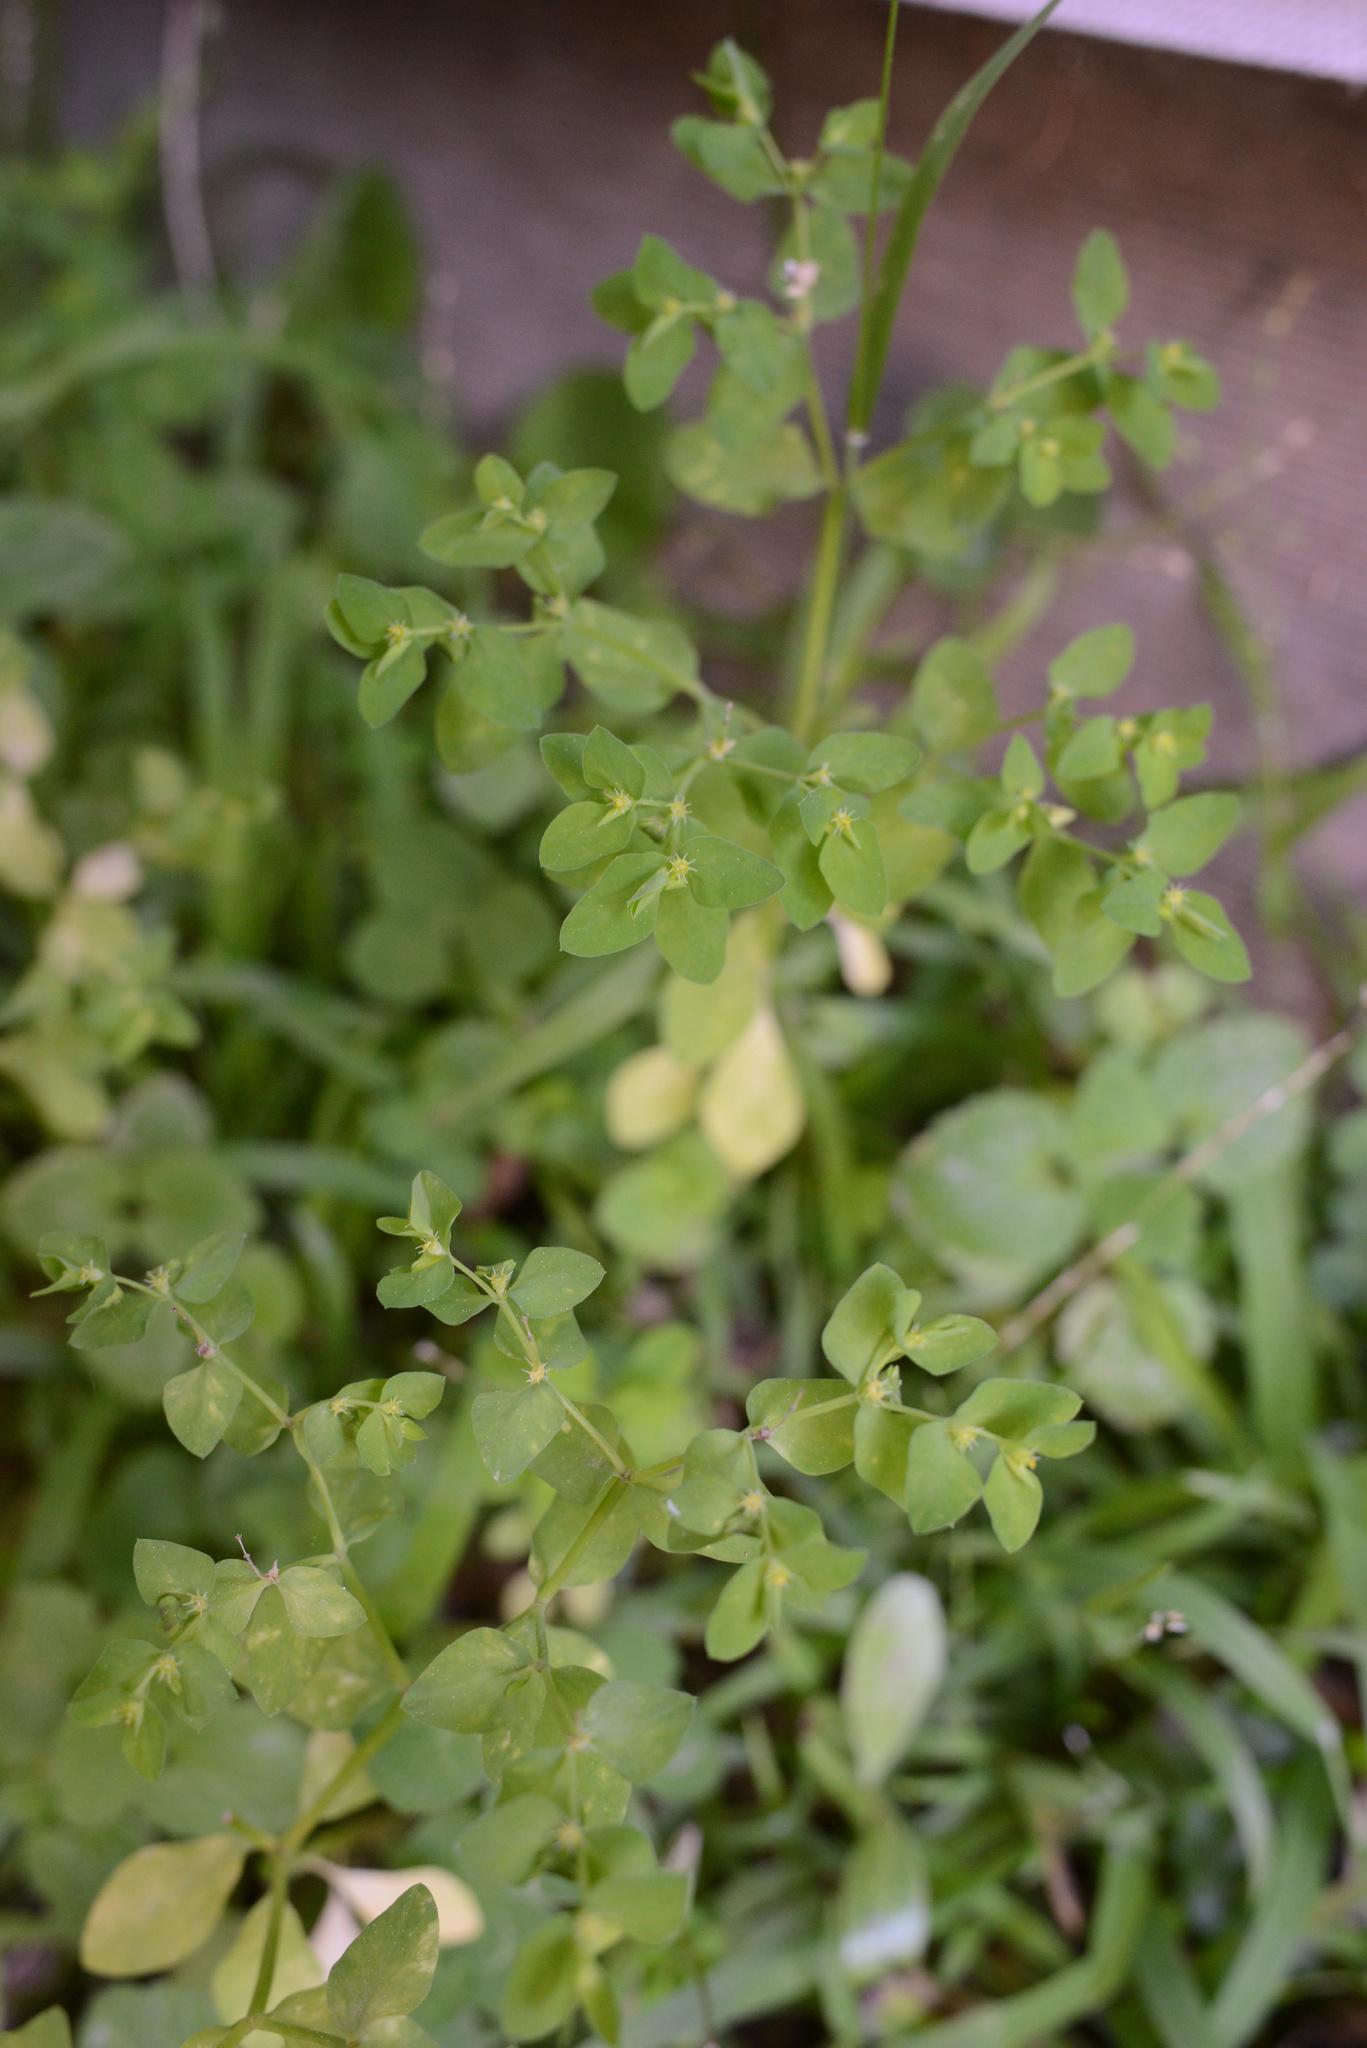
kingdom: Plantae
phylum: Tracheophyta
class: Magnoliopsida
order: Malpighiales
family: Euphorbiaceae
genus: Euphorbia
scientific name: Euphorbia peplus
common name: Petty spurge
